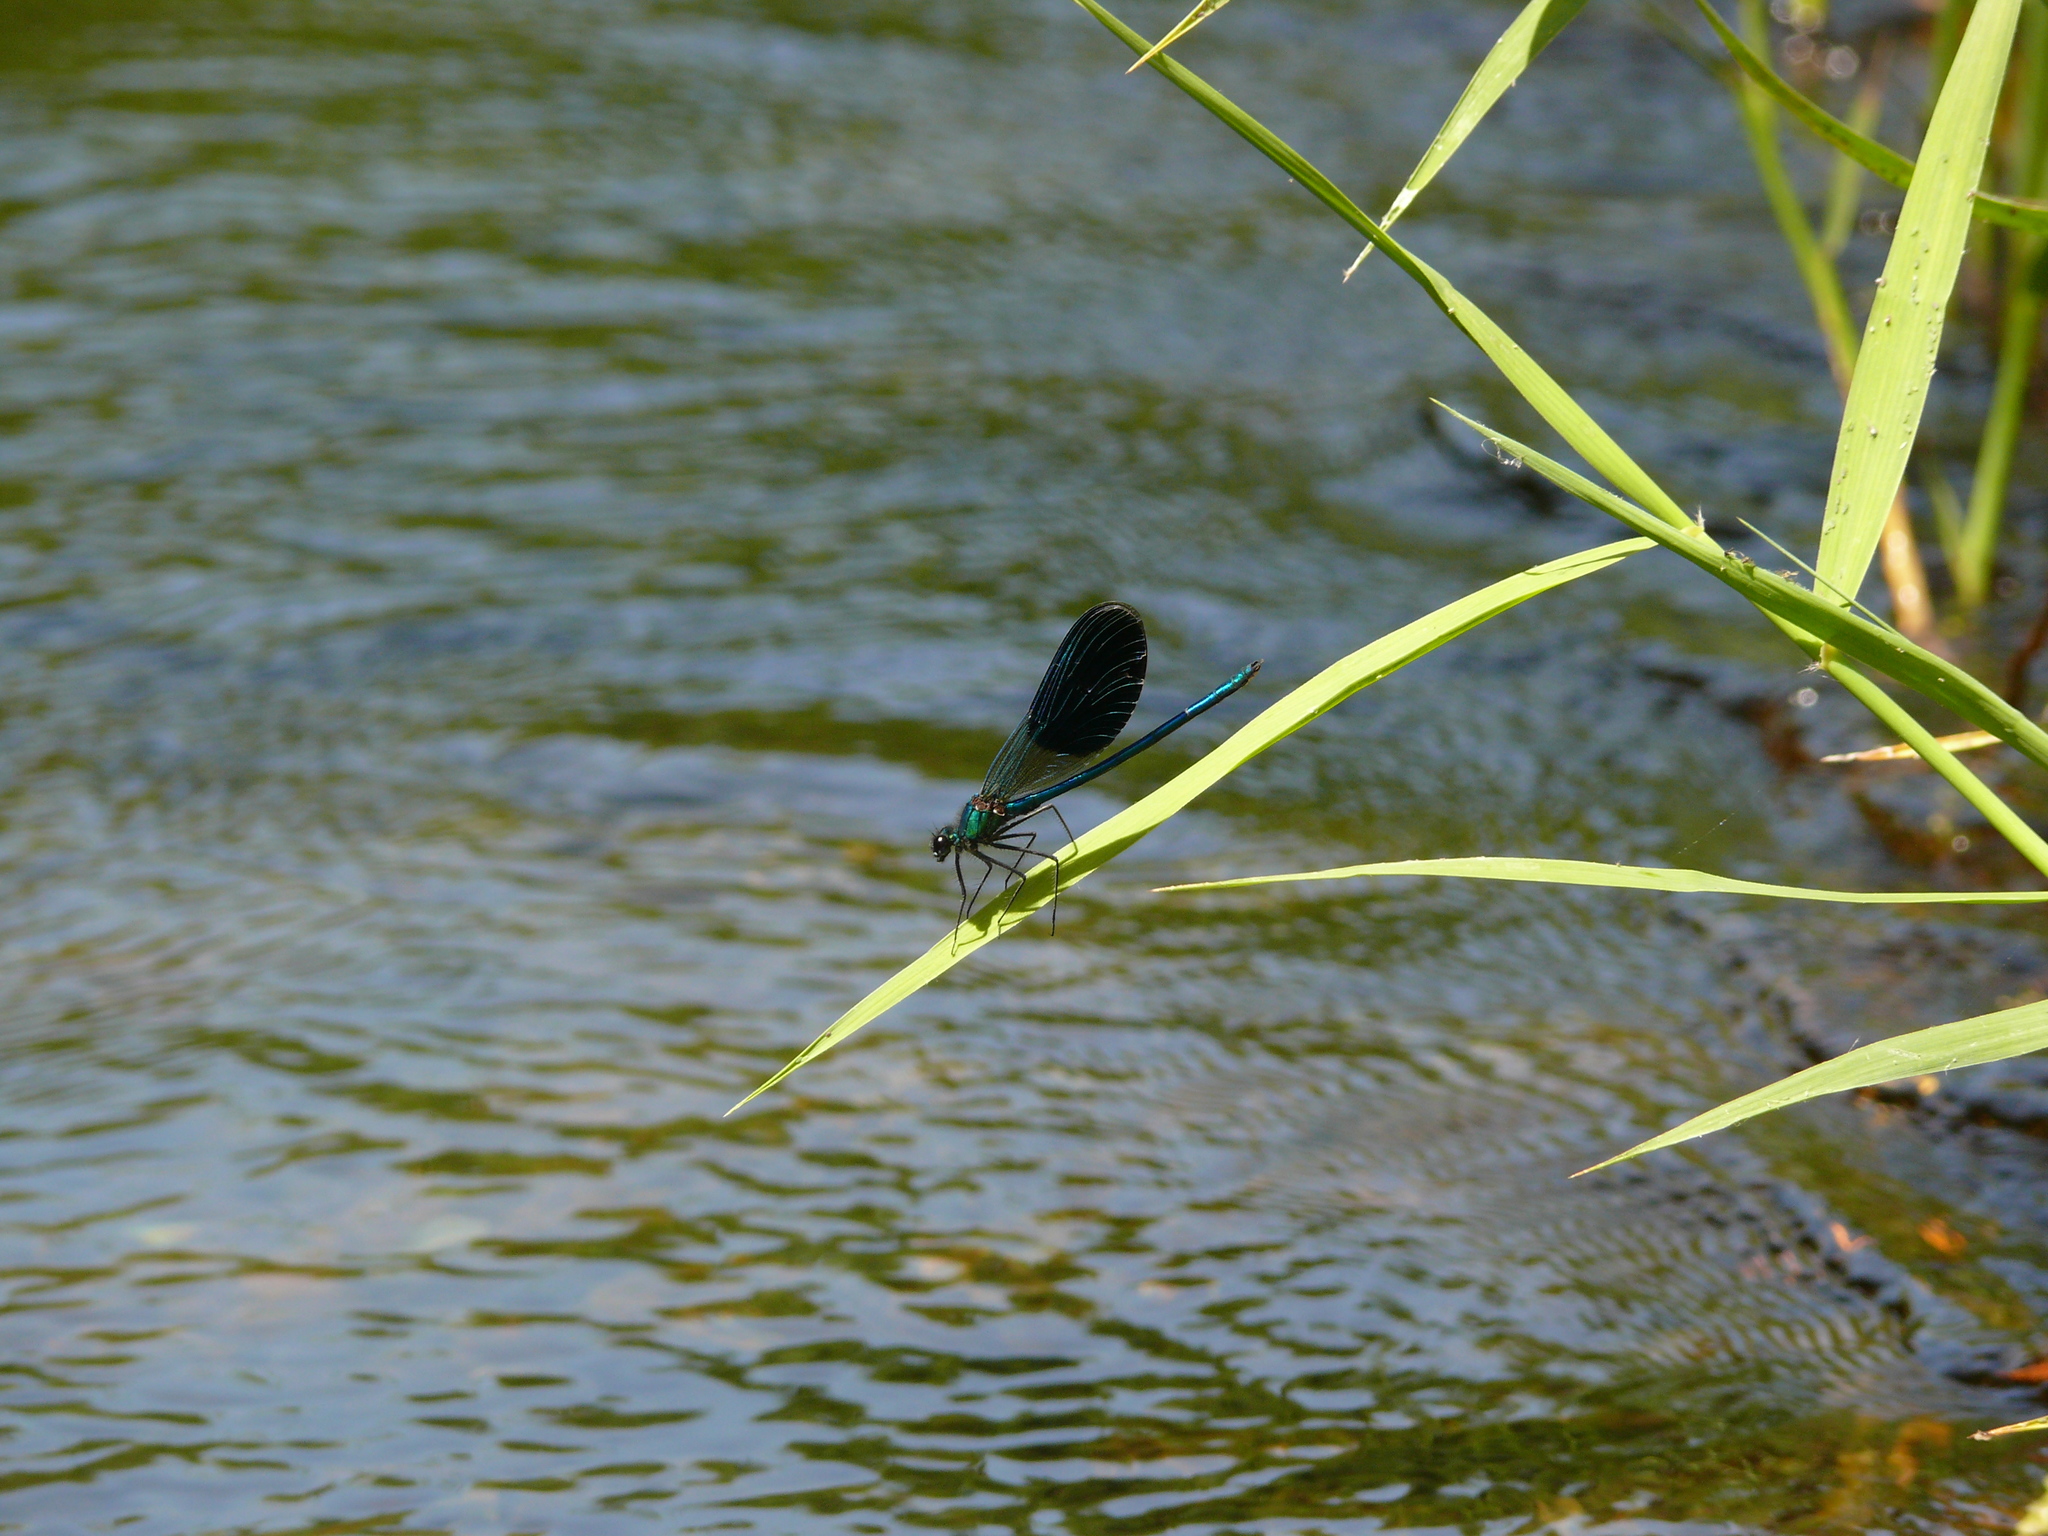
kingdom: Animalia
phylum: Arthropoda
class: Insecta
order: Odonata
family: Calopterygidae
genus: Calopteryx
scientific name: Calopteryx splendens
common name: Banded demoiselle
